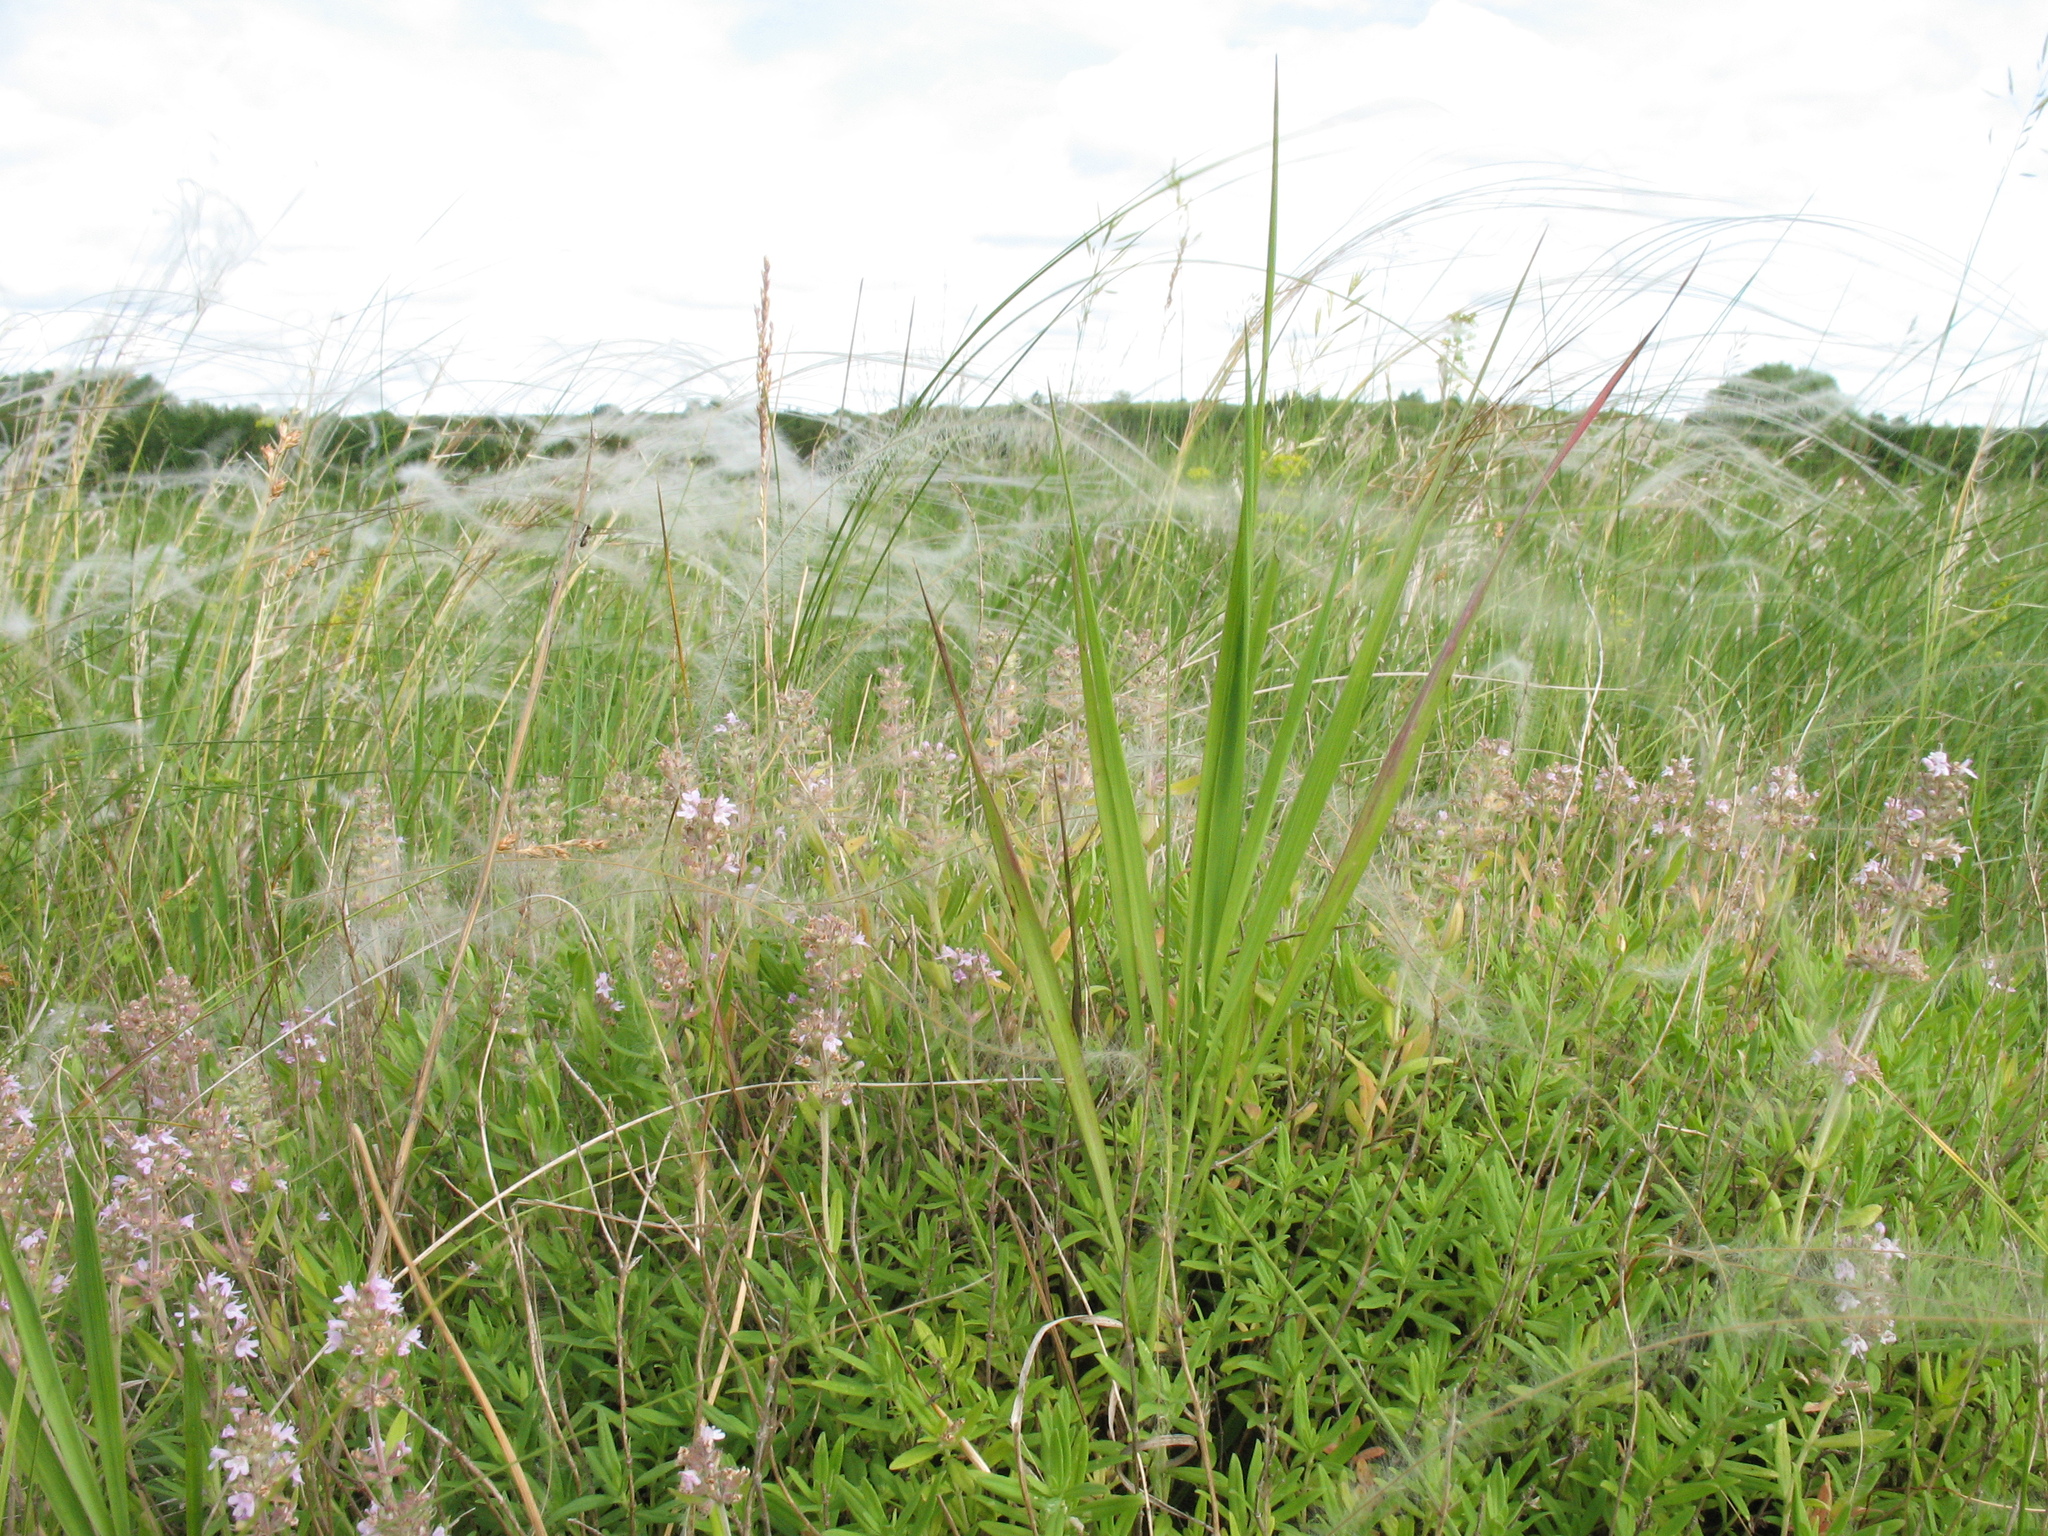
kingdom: Plantae
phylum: Tracheophyta
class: Magnoliopsida
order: Lamiales
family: Lamiaceae
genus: Thymus
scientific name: Thymus pannonicus
